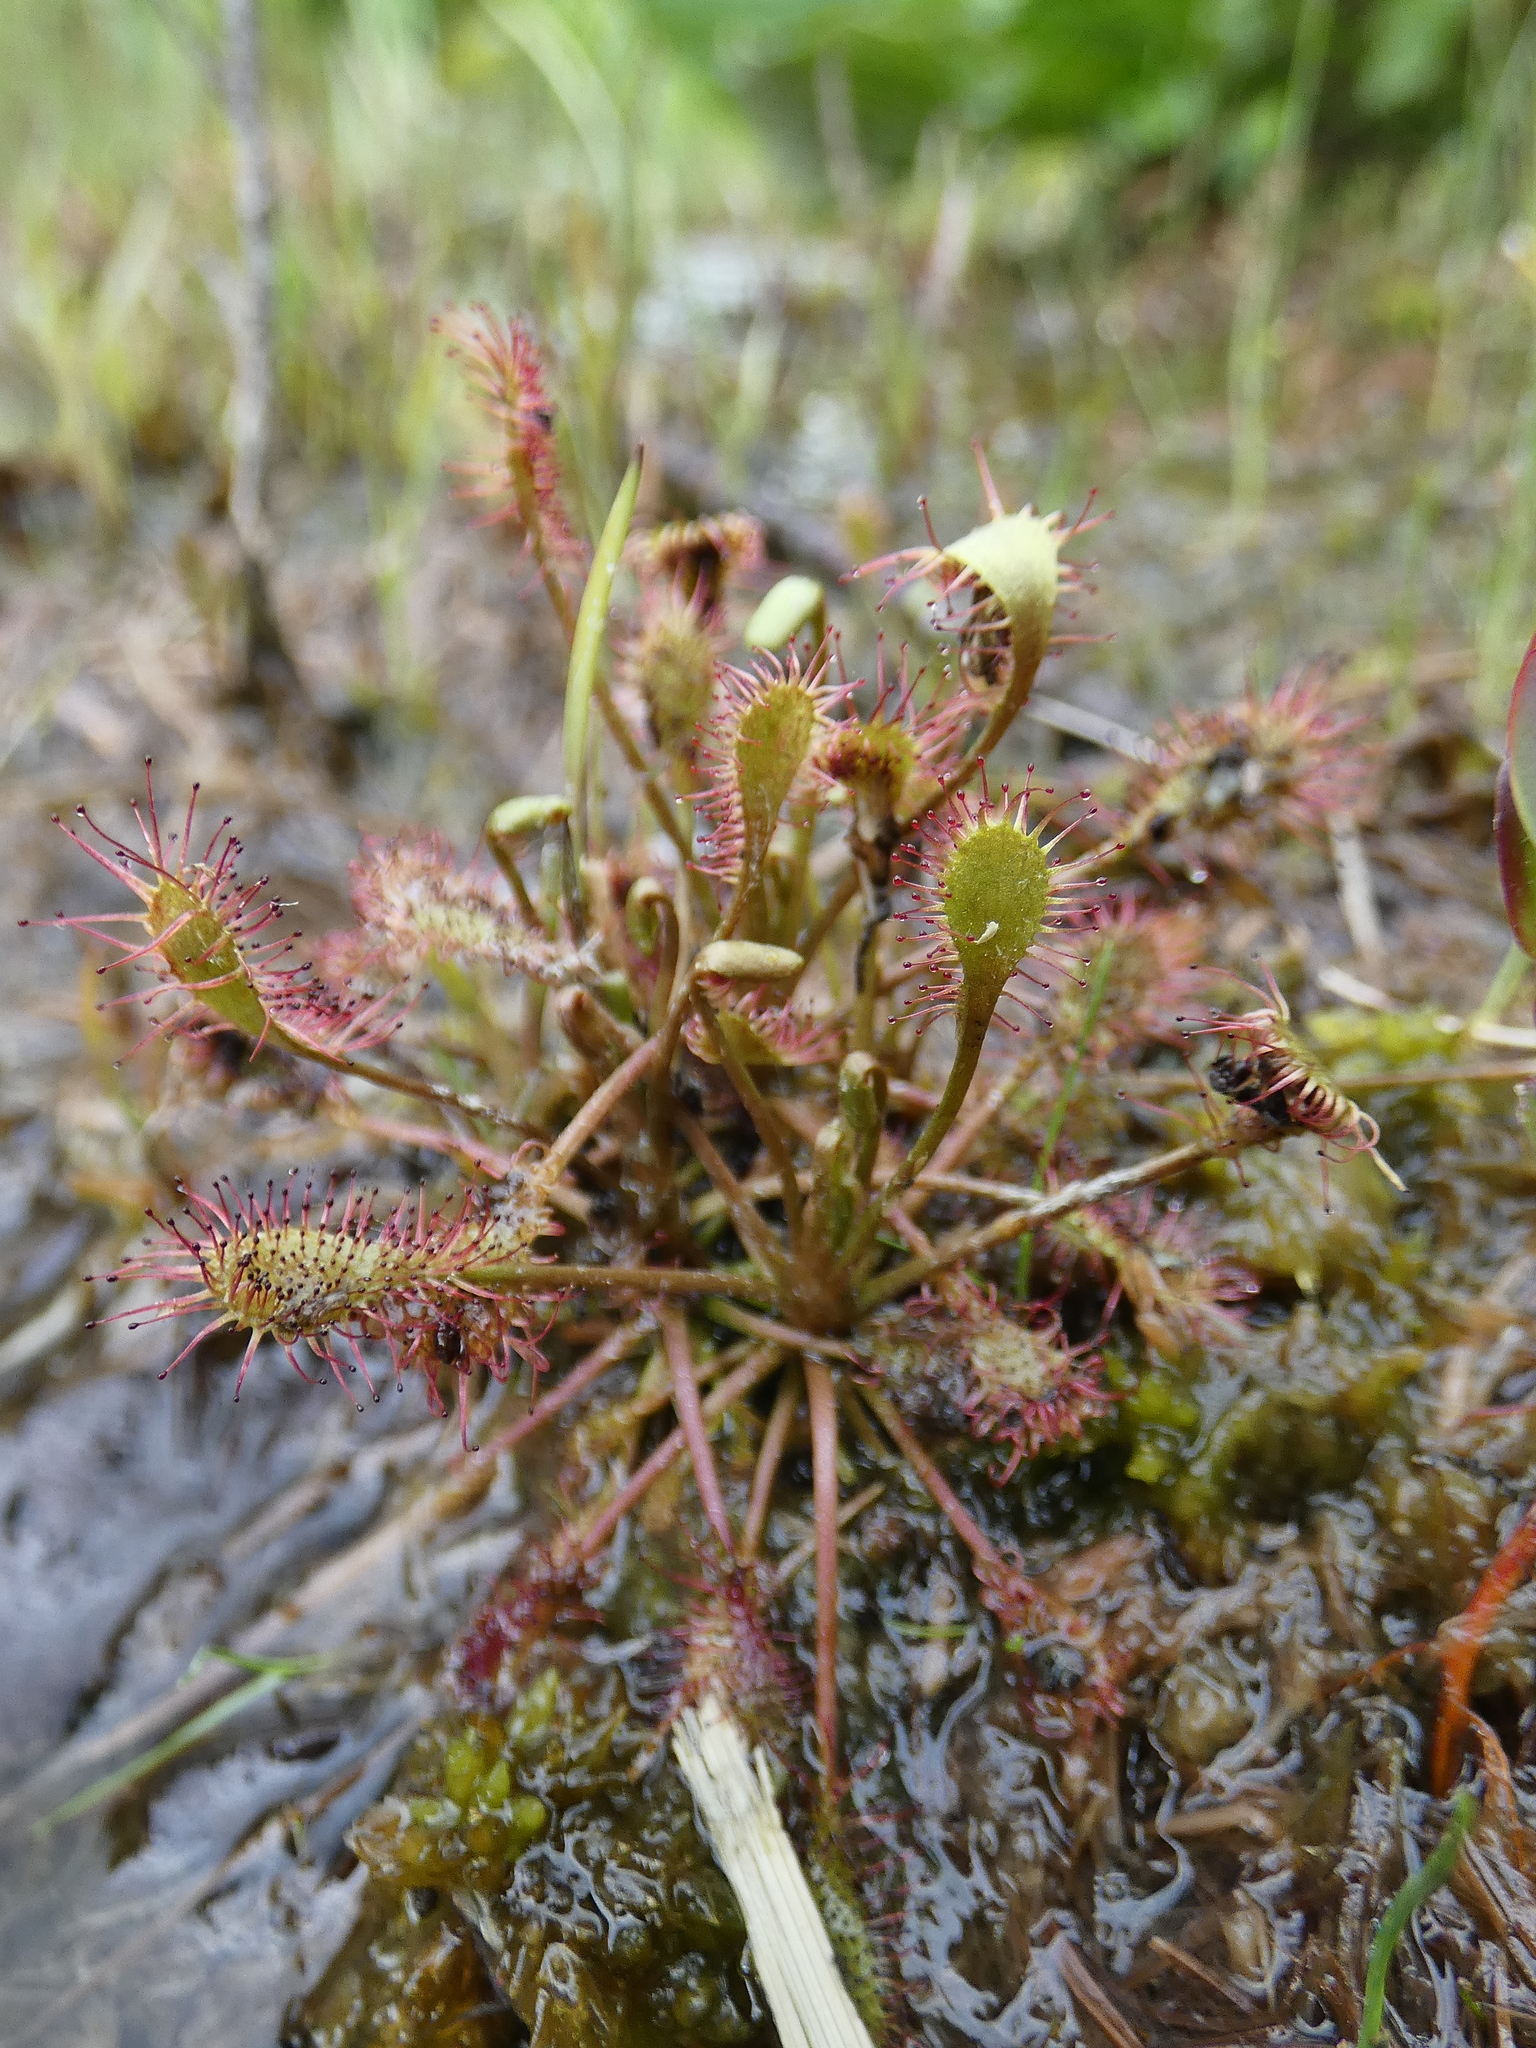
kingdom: Plantae
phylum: Tracheophyta
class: Magnoliopsida
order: Caryophyllales
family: Droseraceae
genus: Drosera
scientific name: Drosera intermedia
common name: Oblong-leaved sundew
